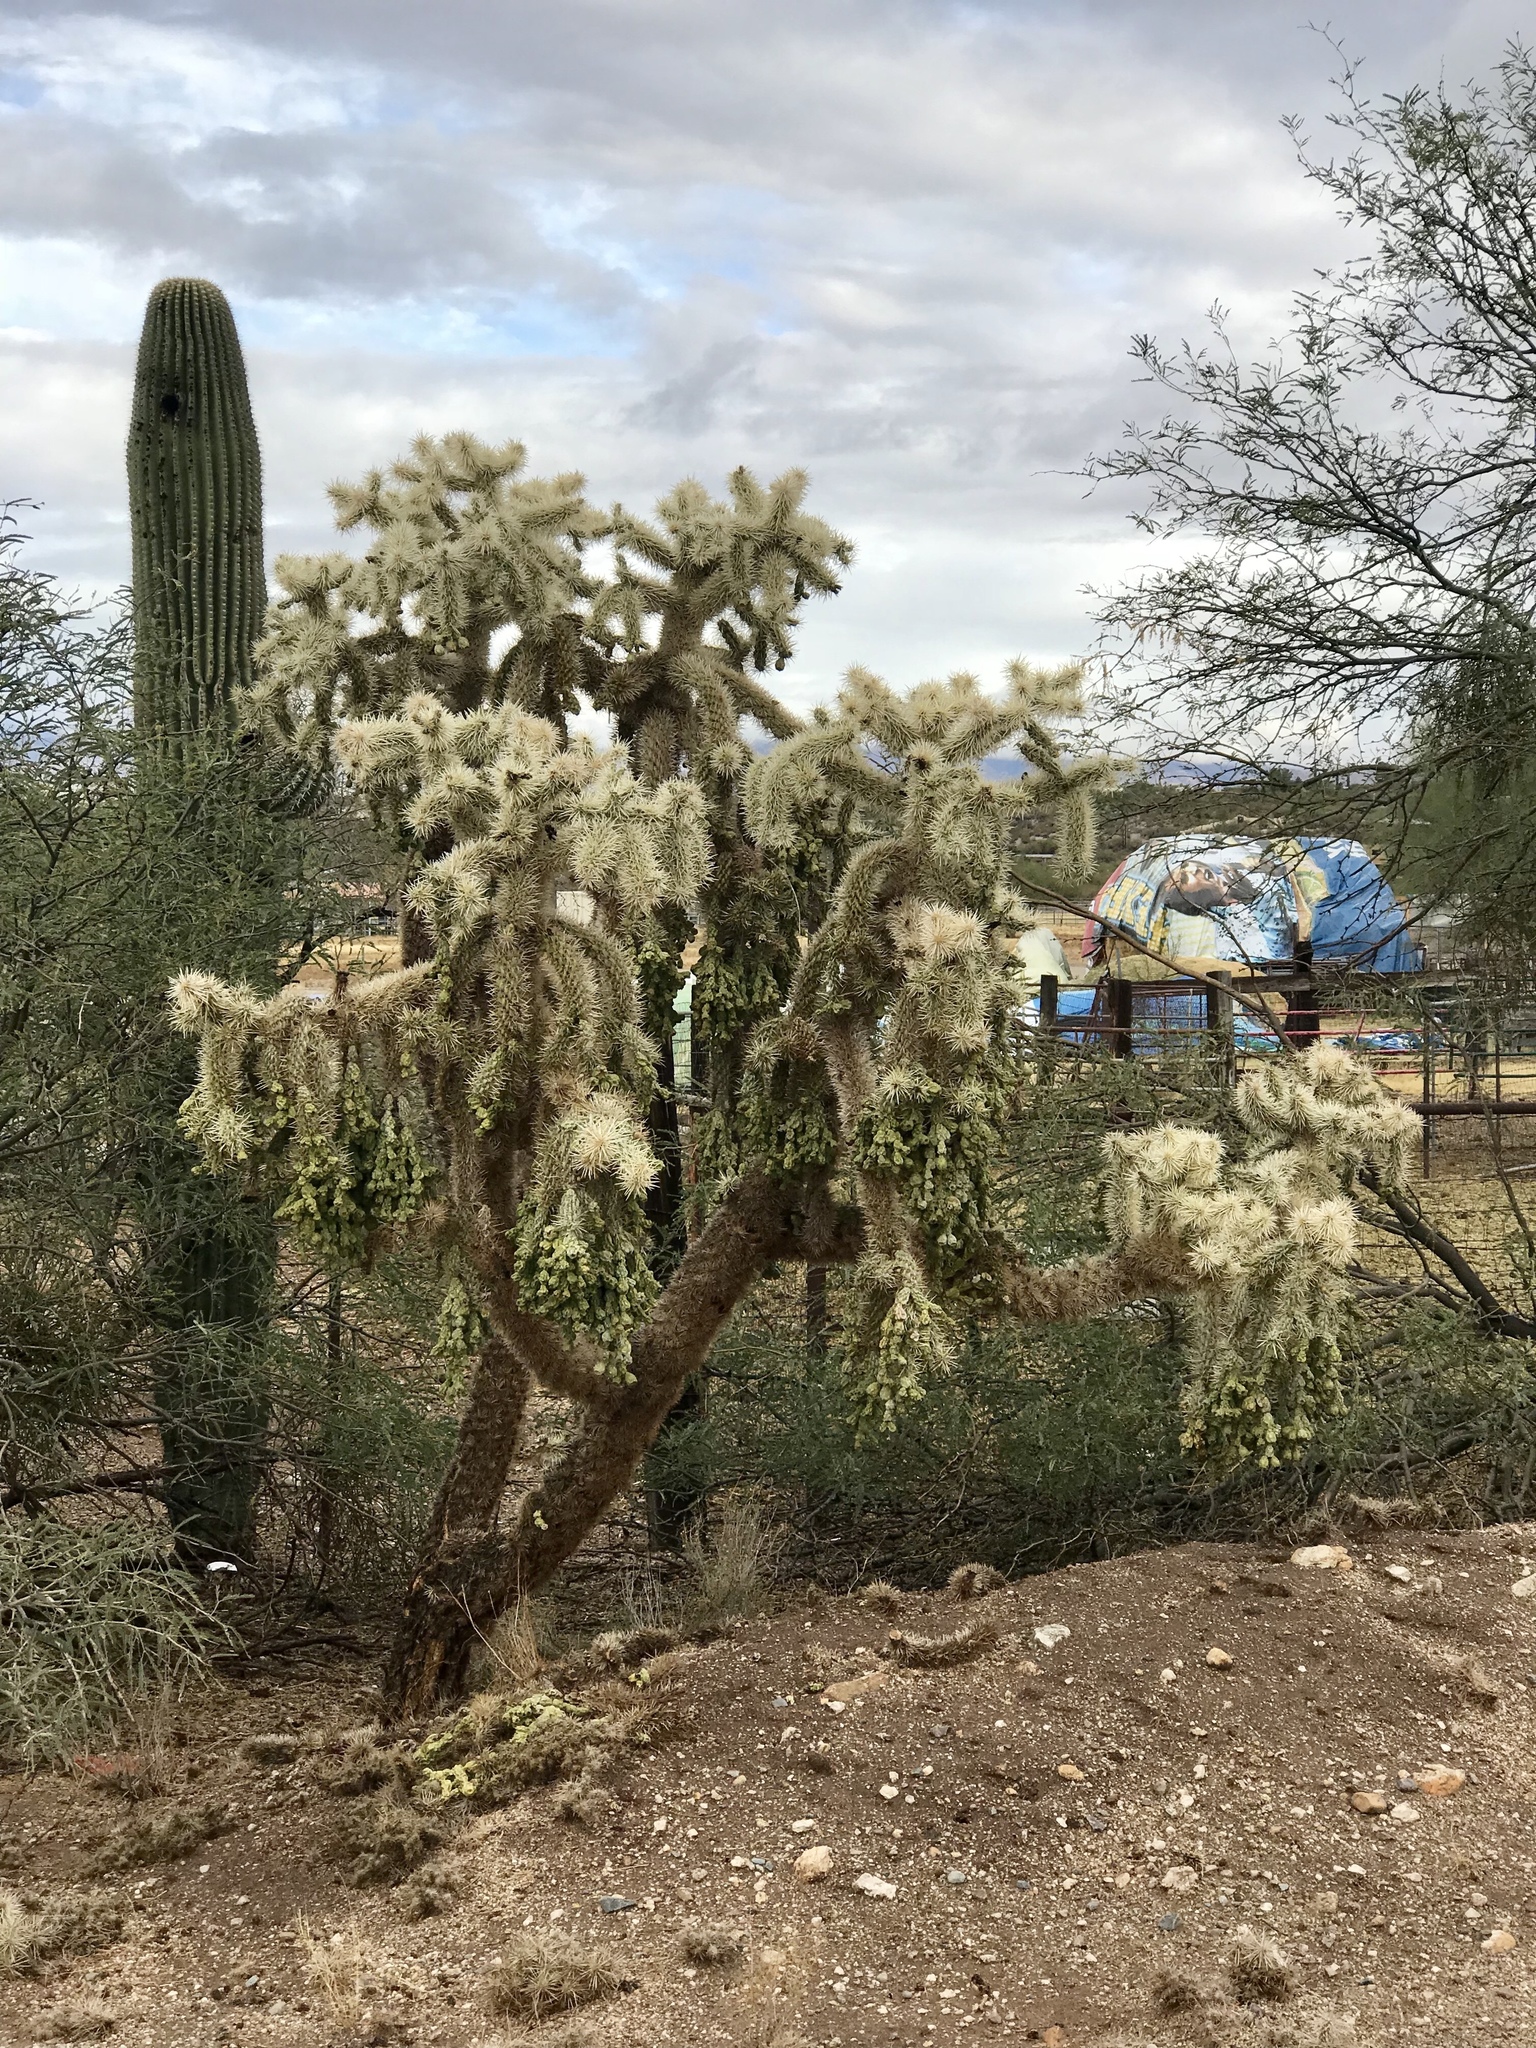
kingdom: Plantae
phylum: Tracheophyta
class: Magnoliopsida
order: Caryophyllales
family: Cactaceae
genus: Cylindropuntia
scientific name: Cylindropuntia fulgida
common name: Jumping cholla
